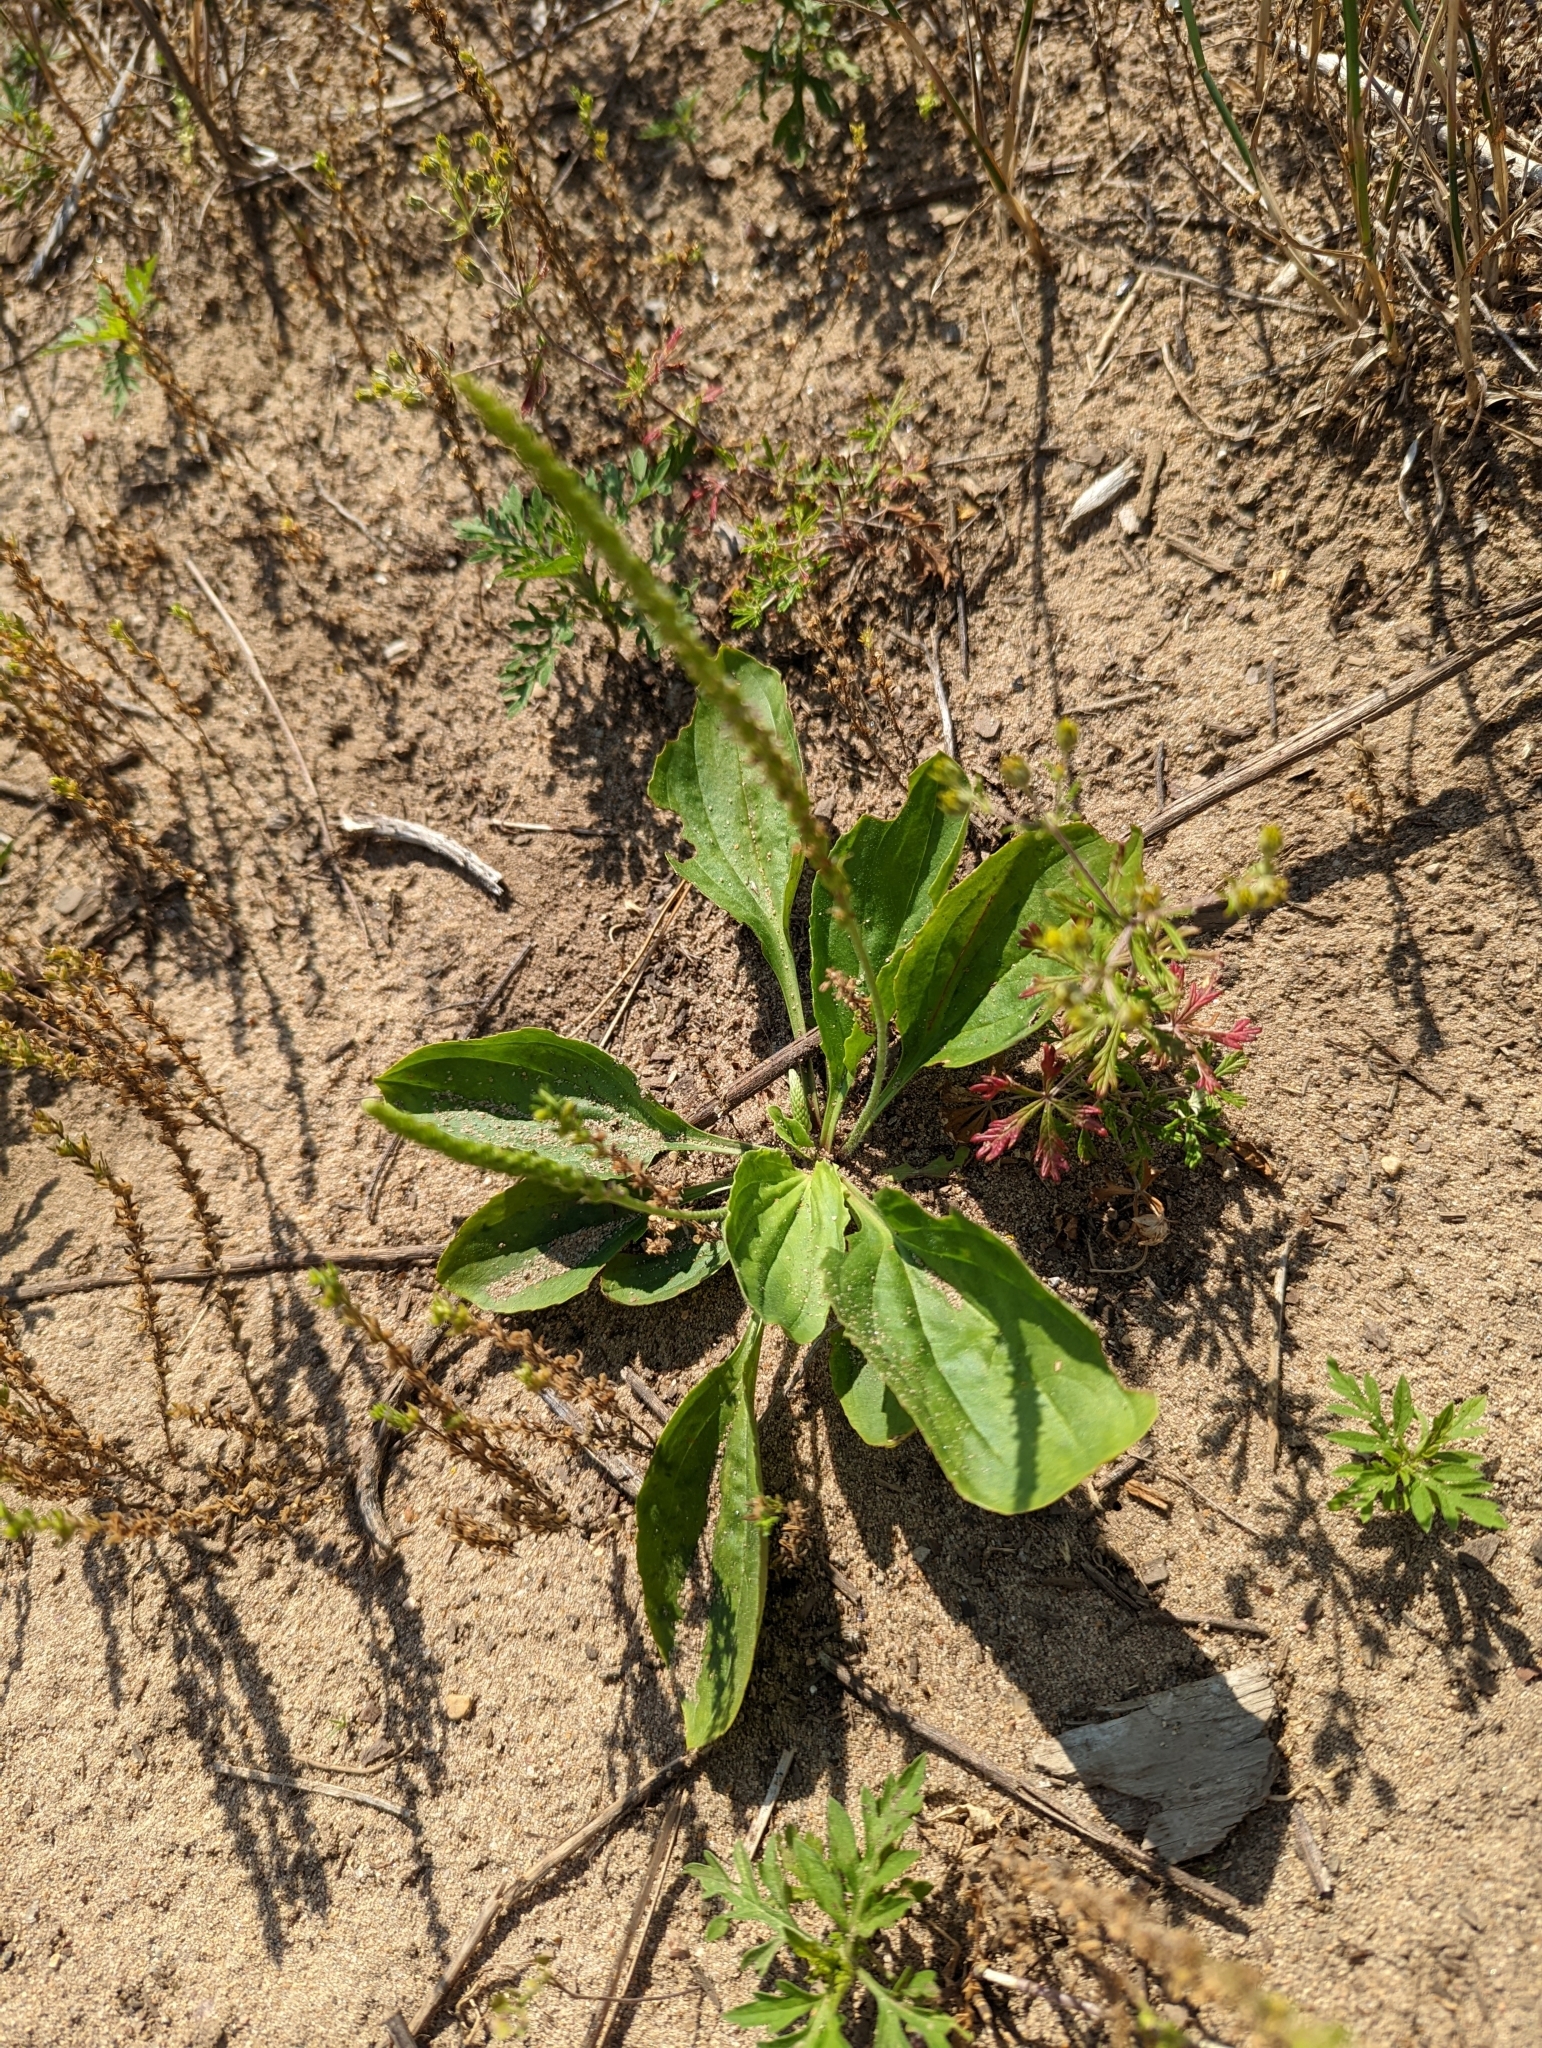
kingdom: Plantae
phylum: Tracheophyta
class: Magnoliopsida
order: Lamiales
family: Plantaginaceae
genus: Plantago
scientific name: Plantago major
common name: Common plantain
